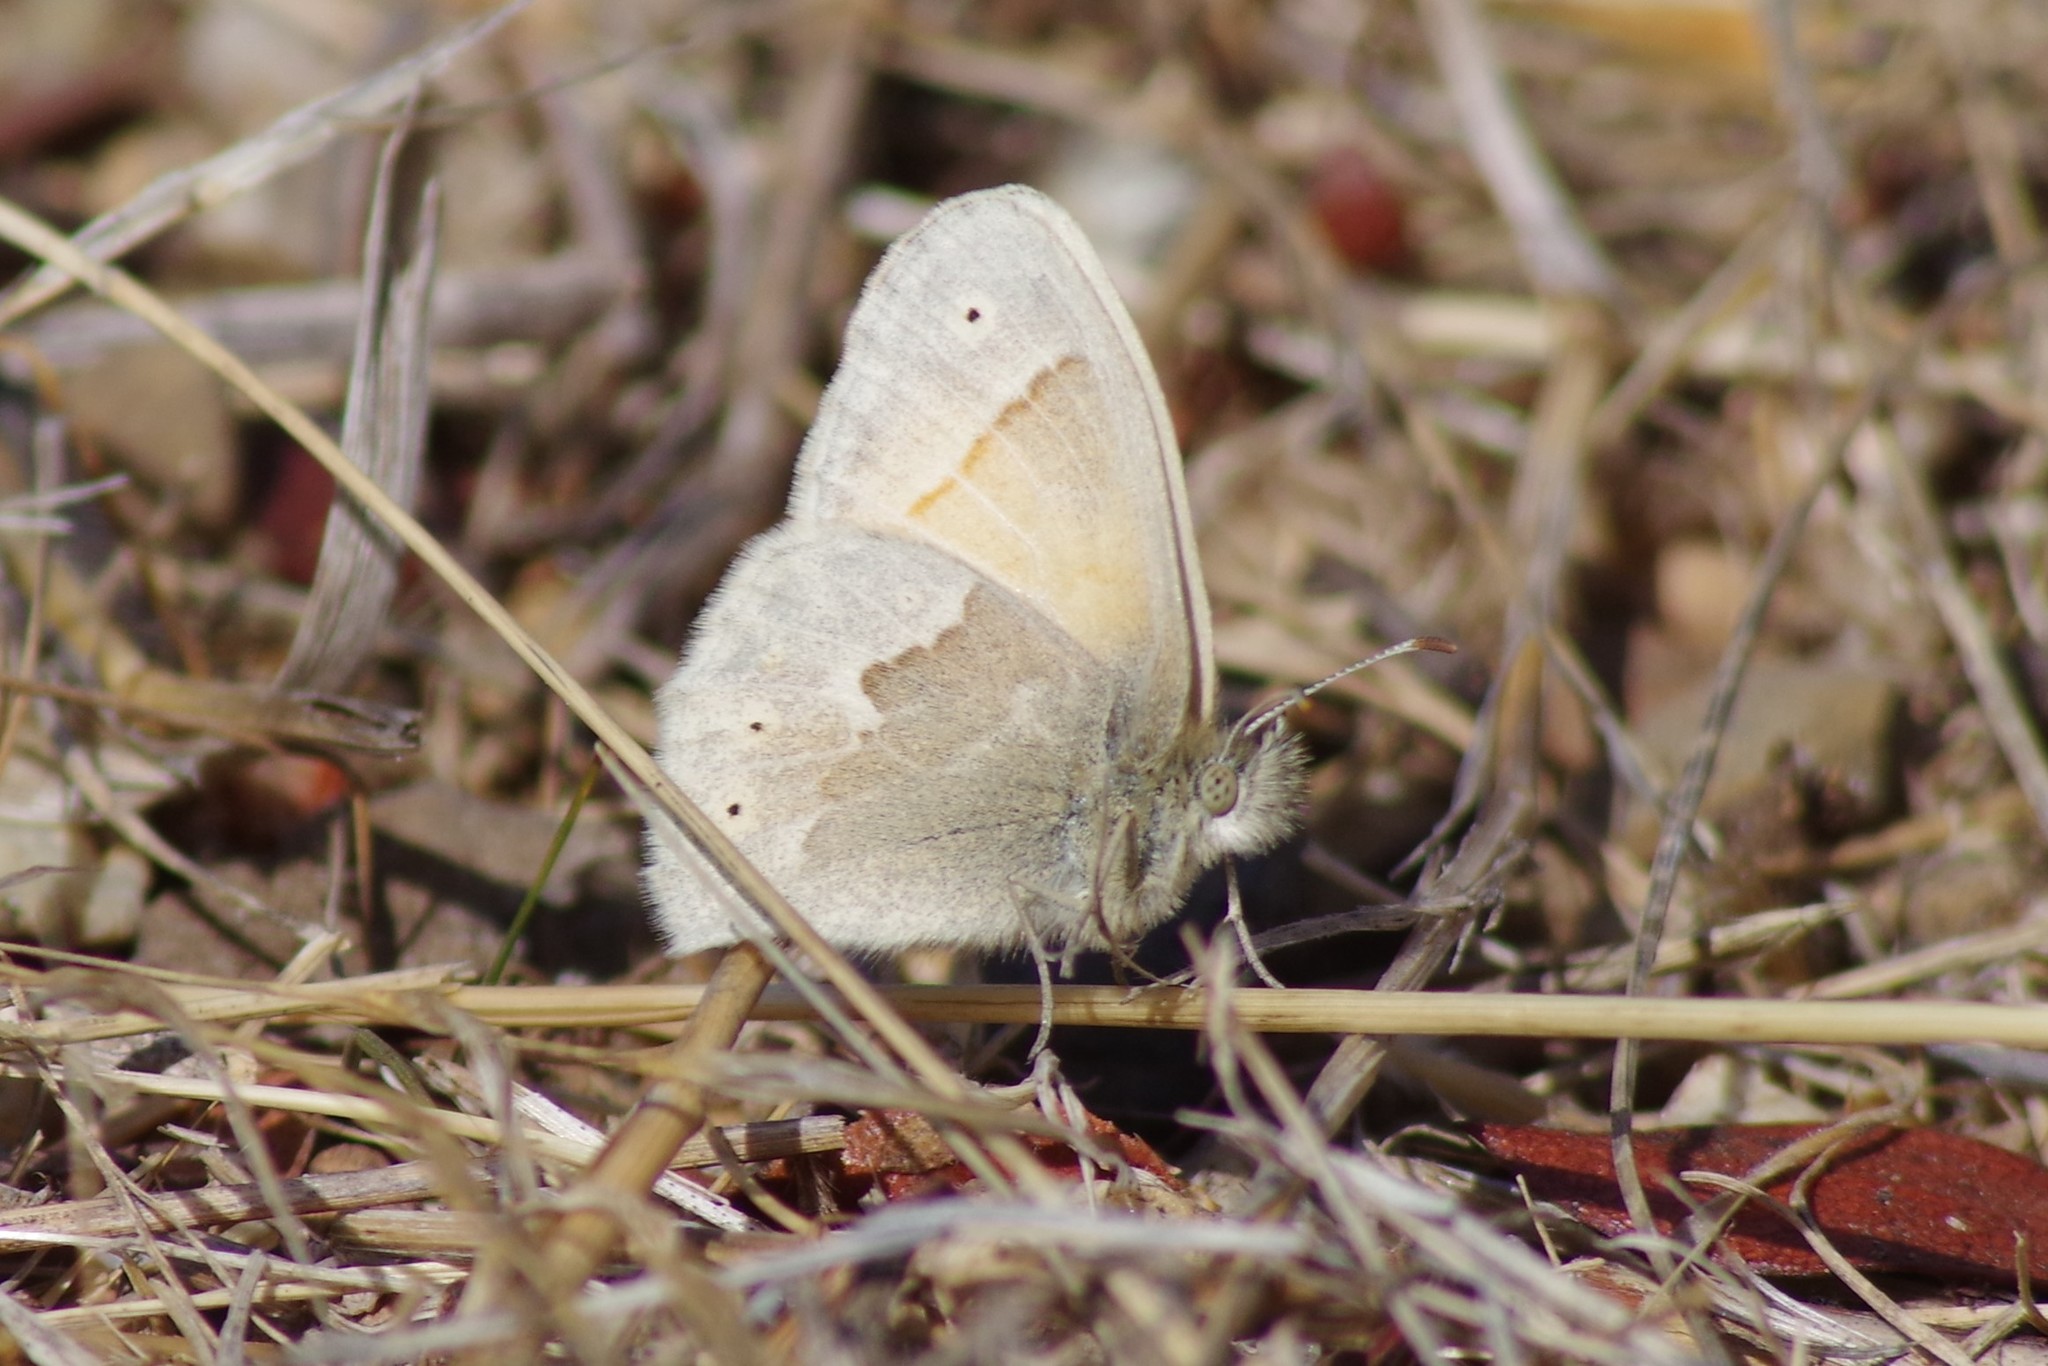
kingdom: Animalia
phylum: Arthropoda
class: Insecta
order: Lepidoptera
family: Nymphalidae
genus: Coenonympha
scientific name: Coenonympha california
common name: Common ringlet
